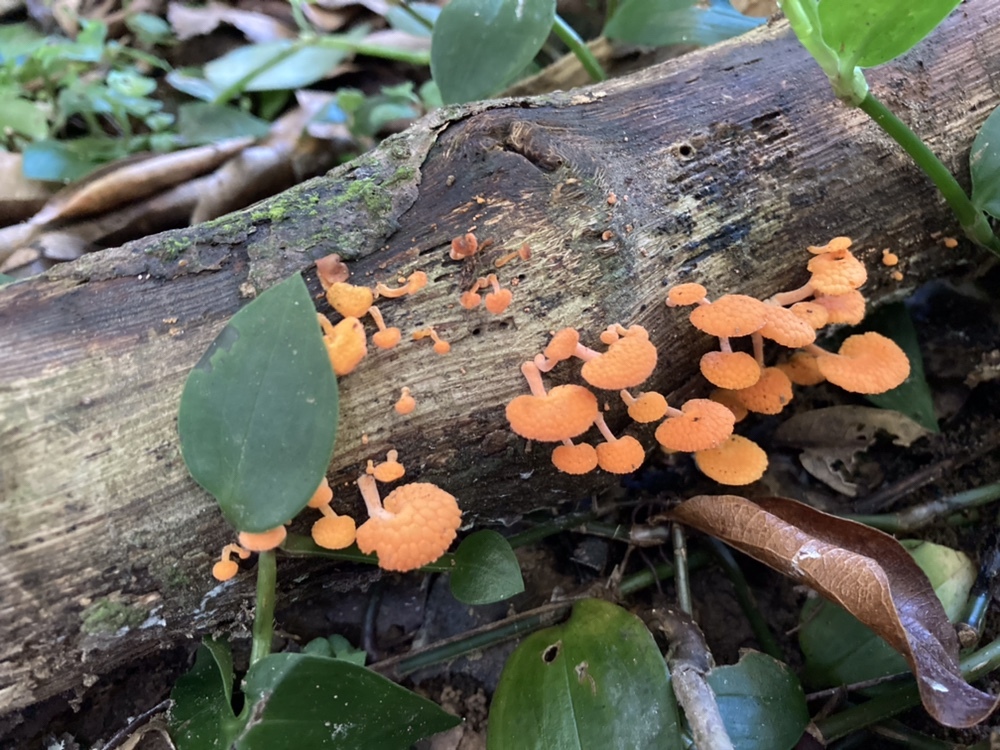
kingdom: Fungi
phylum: Basidiomycota
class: Agaricomycetes
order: Agaricales
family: Mycenaceae
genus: Favolaschia
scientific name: Favolaschia claudopus
